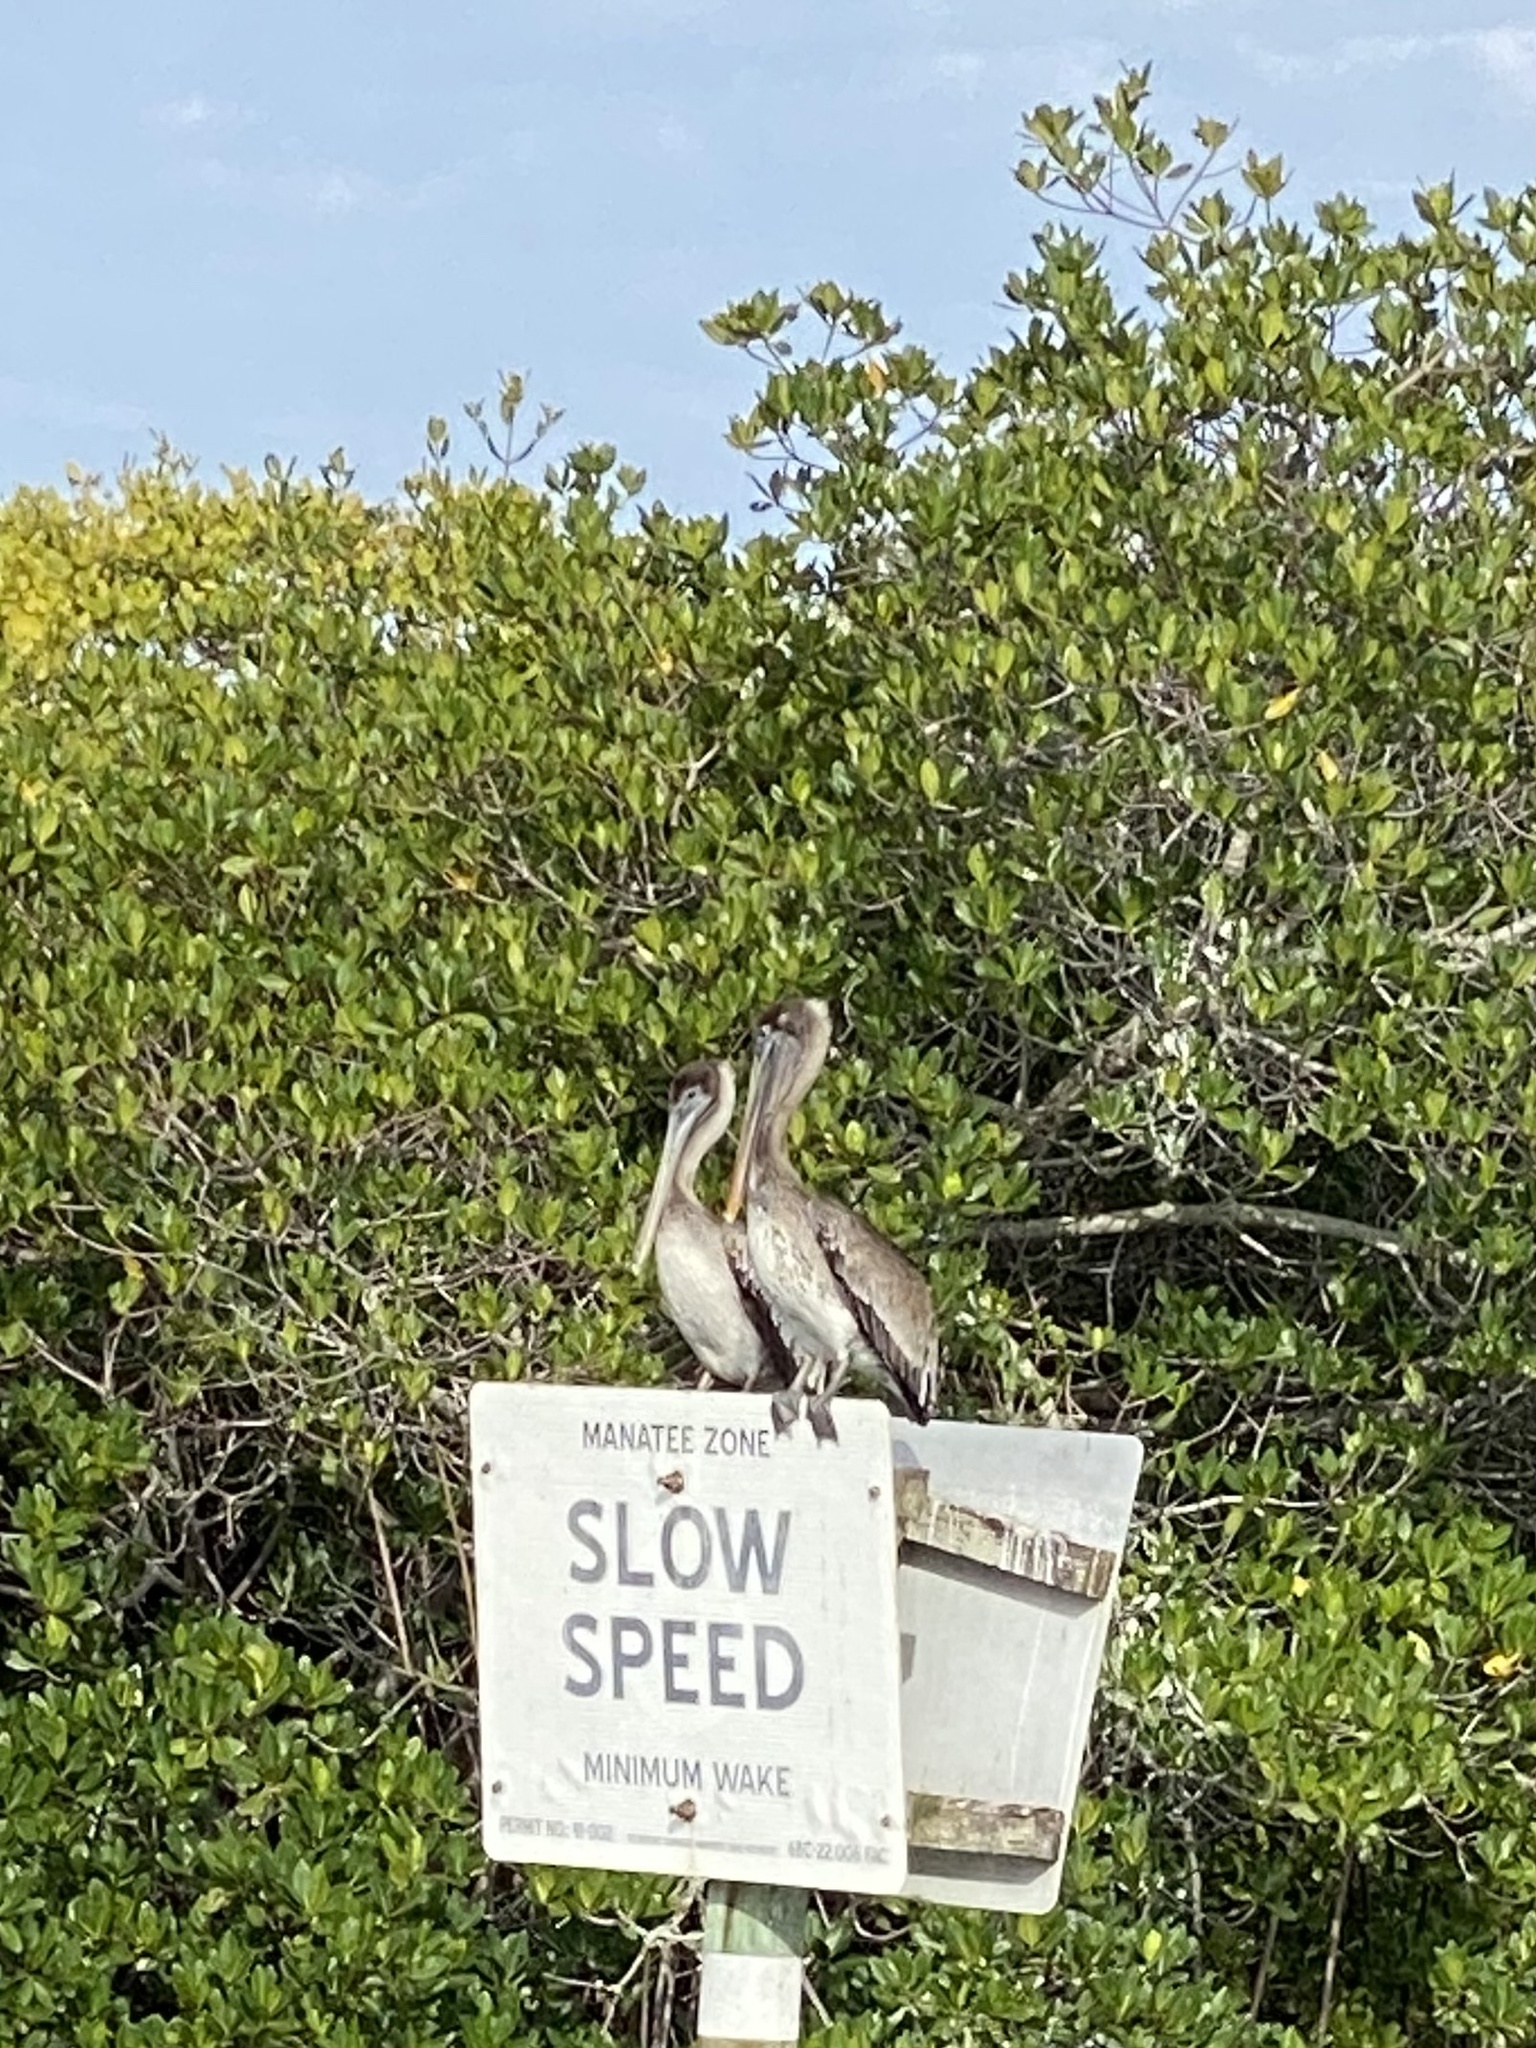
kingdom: Animalia
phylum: Chordata
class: Aves
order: Pelecaniformes
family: Pelecanidae
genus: Pelecanus
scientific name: Pelecanus occidentalis
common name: Brown pelican
